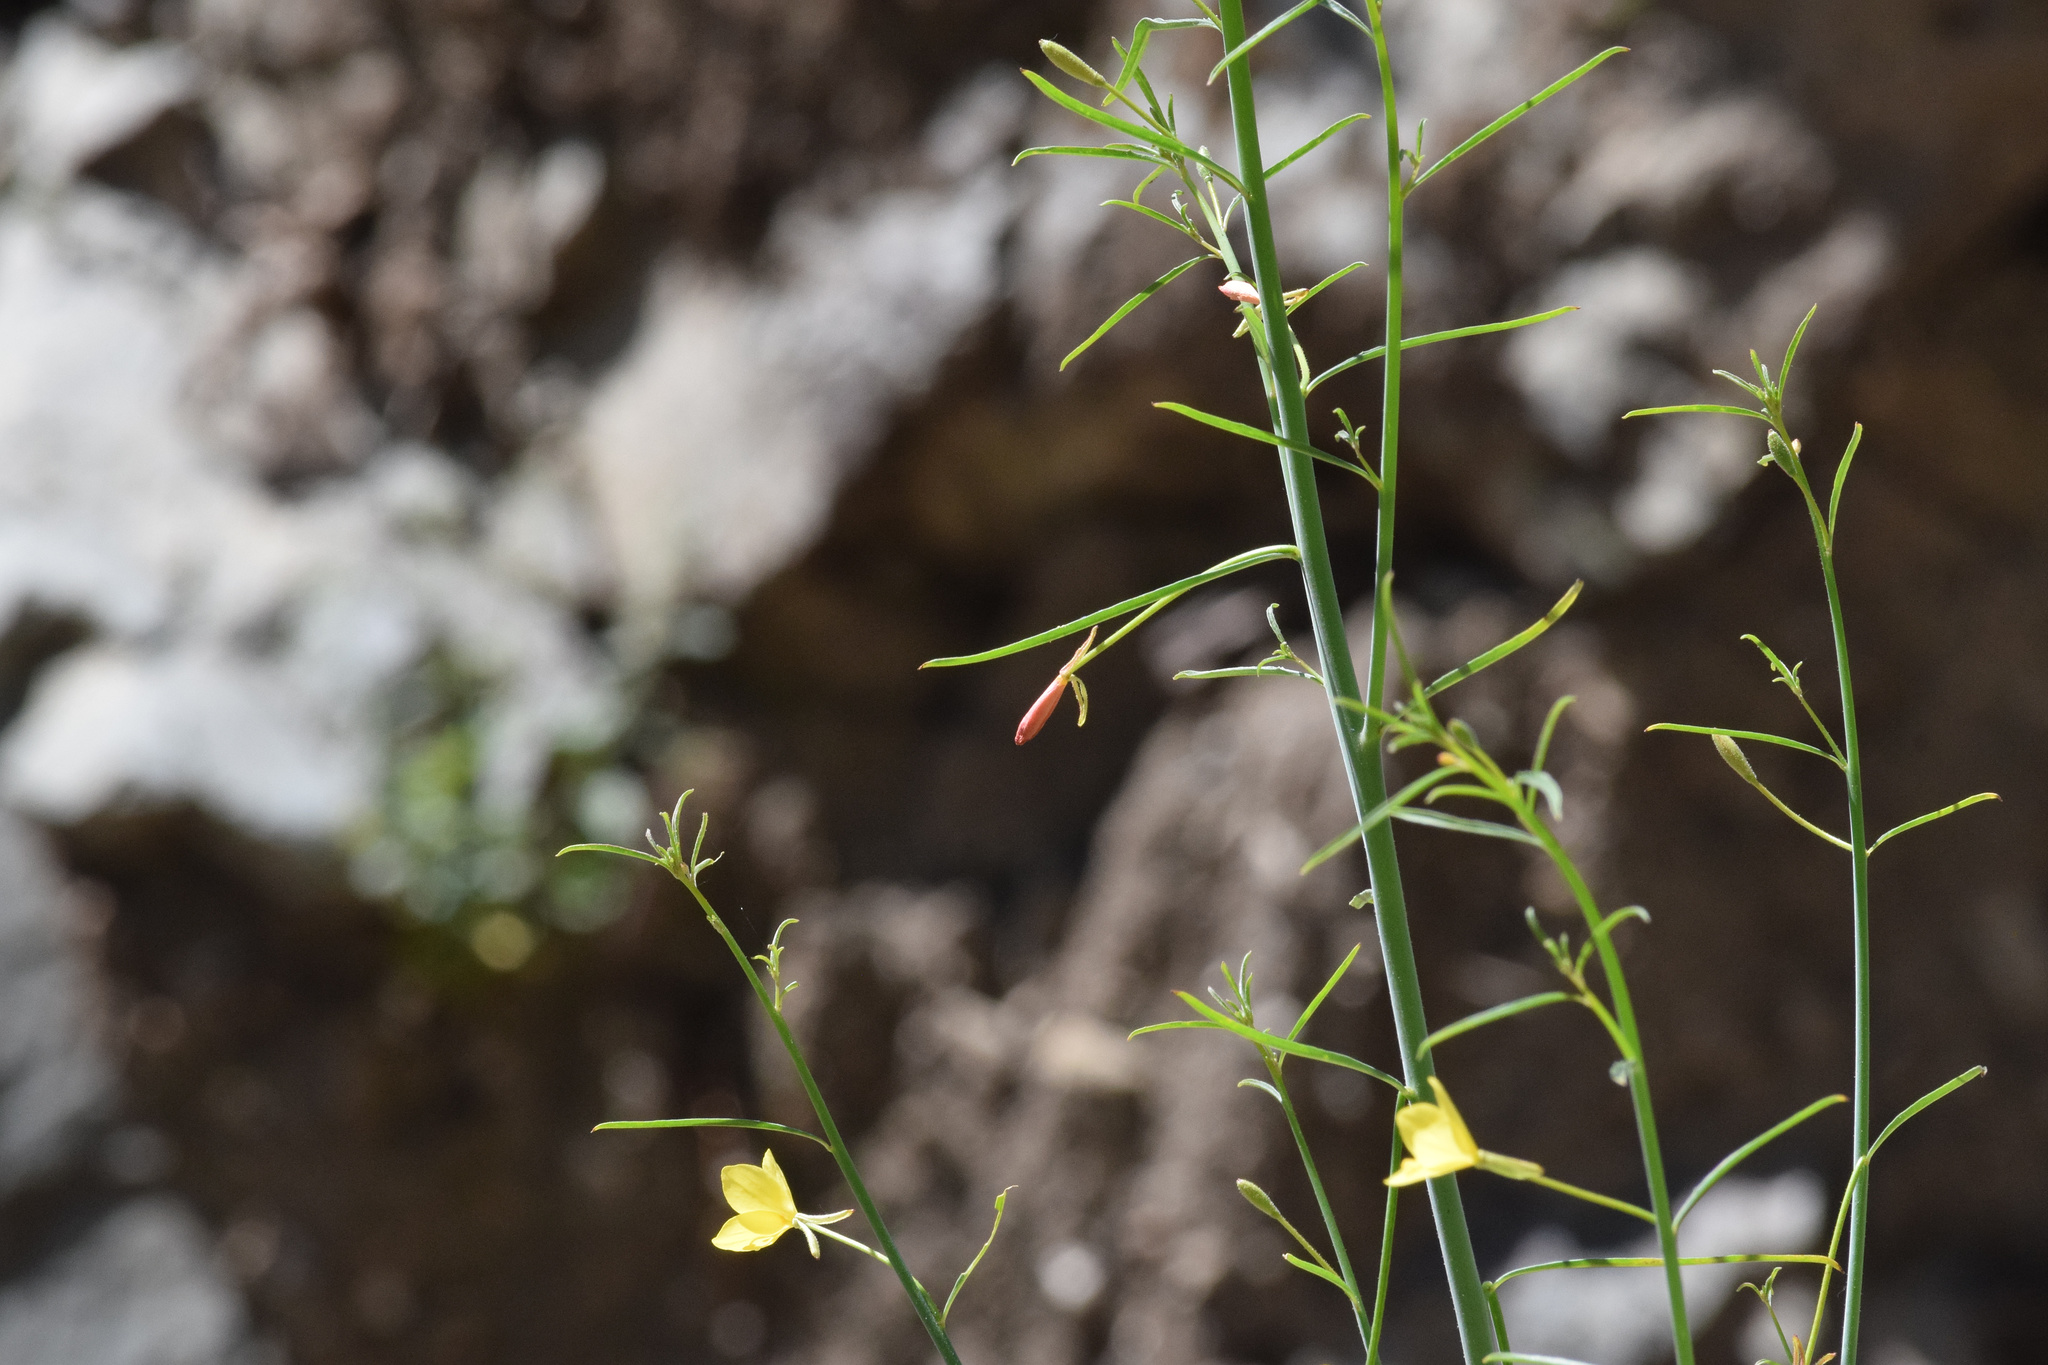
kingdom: Plantae
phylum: Tracheophyta
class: Magnoliopsida
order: Myrtales
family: Onagraceae
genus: Eulobus
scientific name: Eulobus californicus
